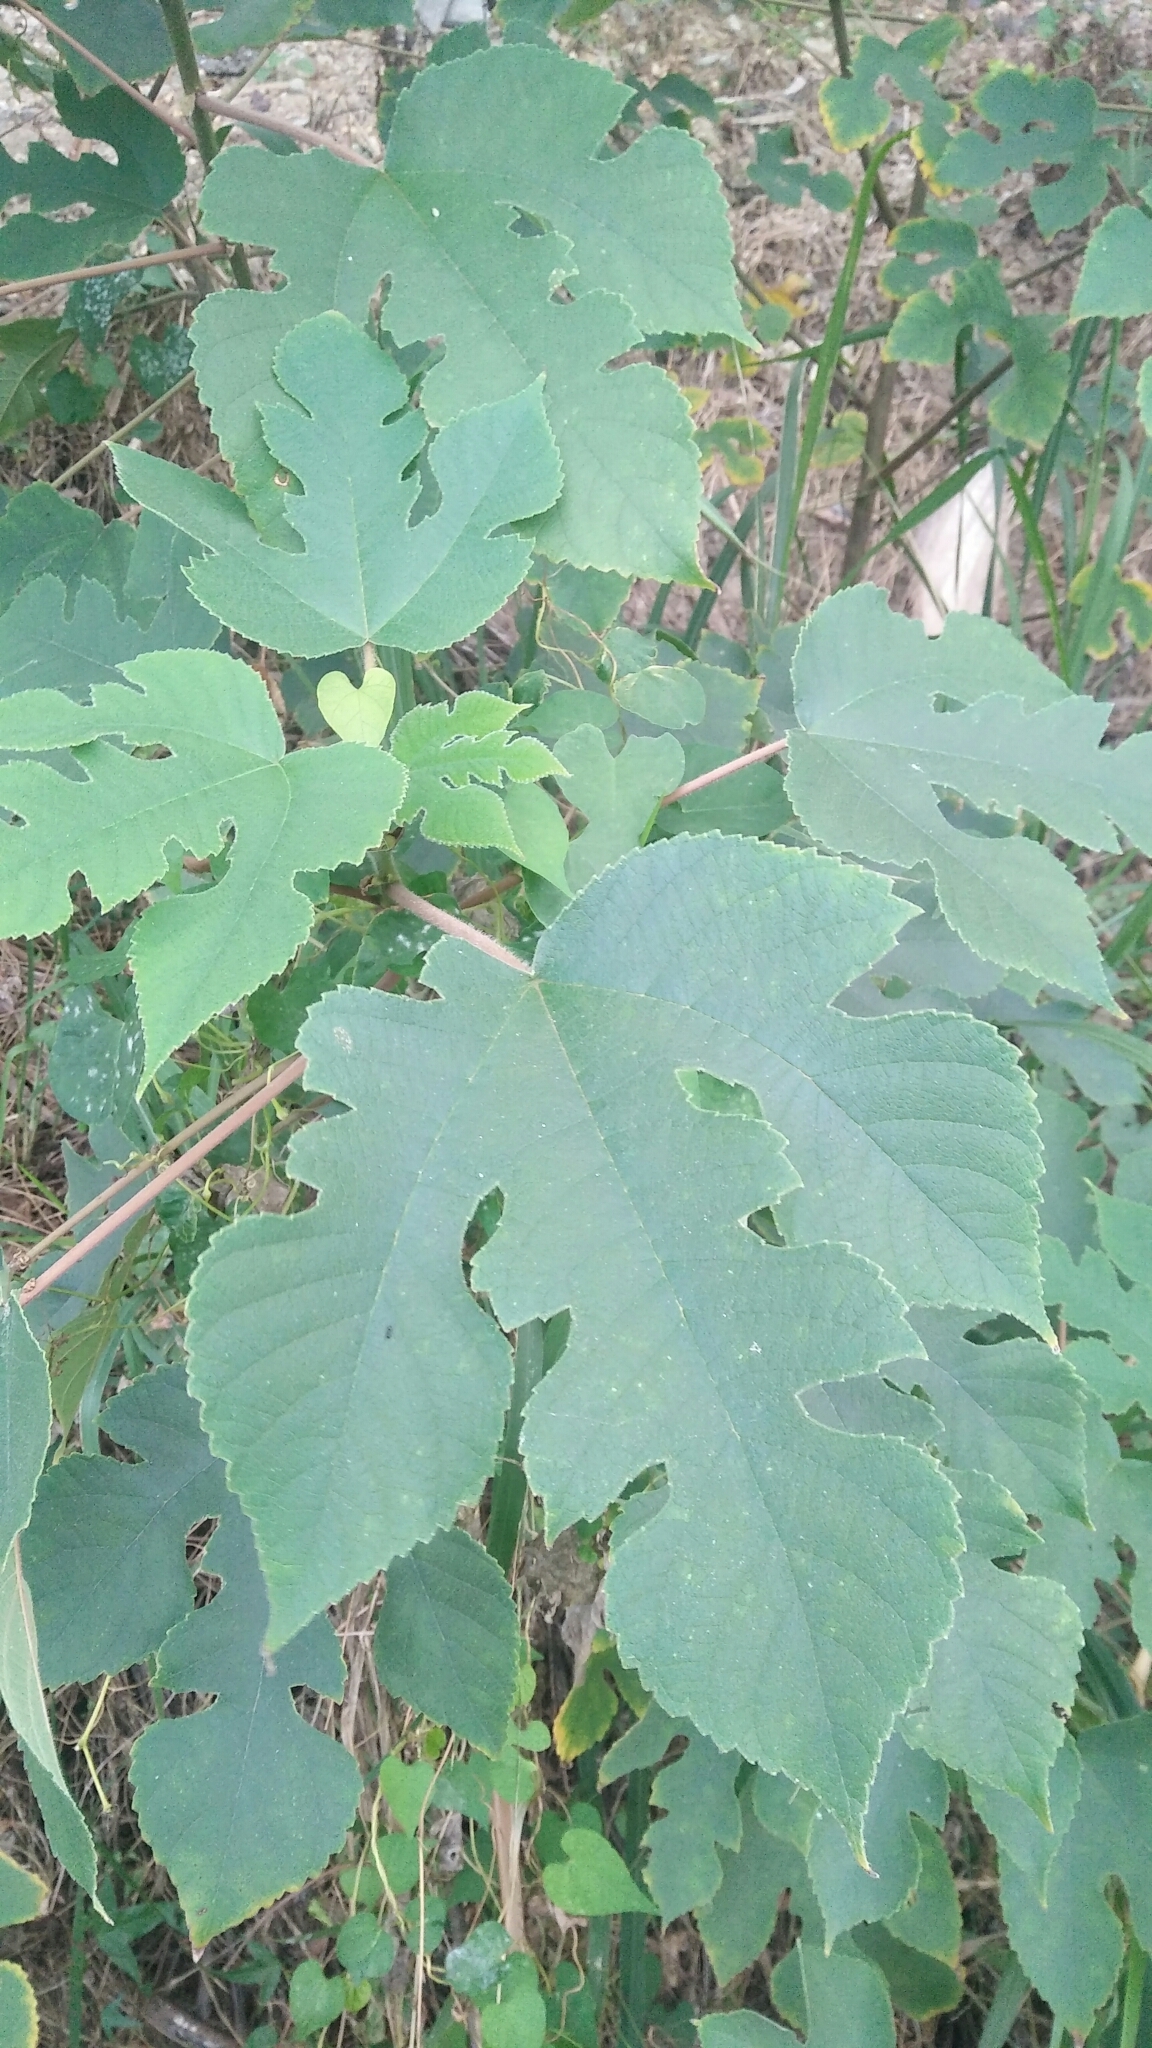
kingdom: Plantae
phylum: Tracheophyta
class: Magnoliopsida
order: Rosales
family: Moraceae
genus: Broussonetia
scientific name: Broussonetia papyrifera
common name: Paper mulberry
